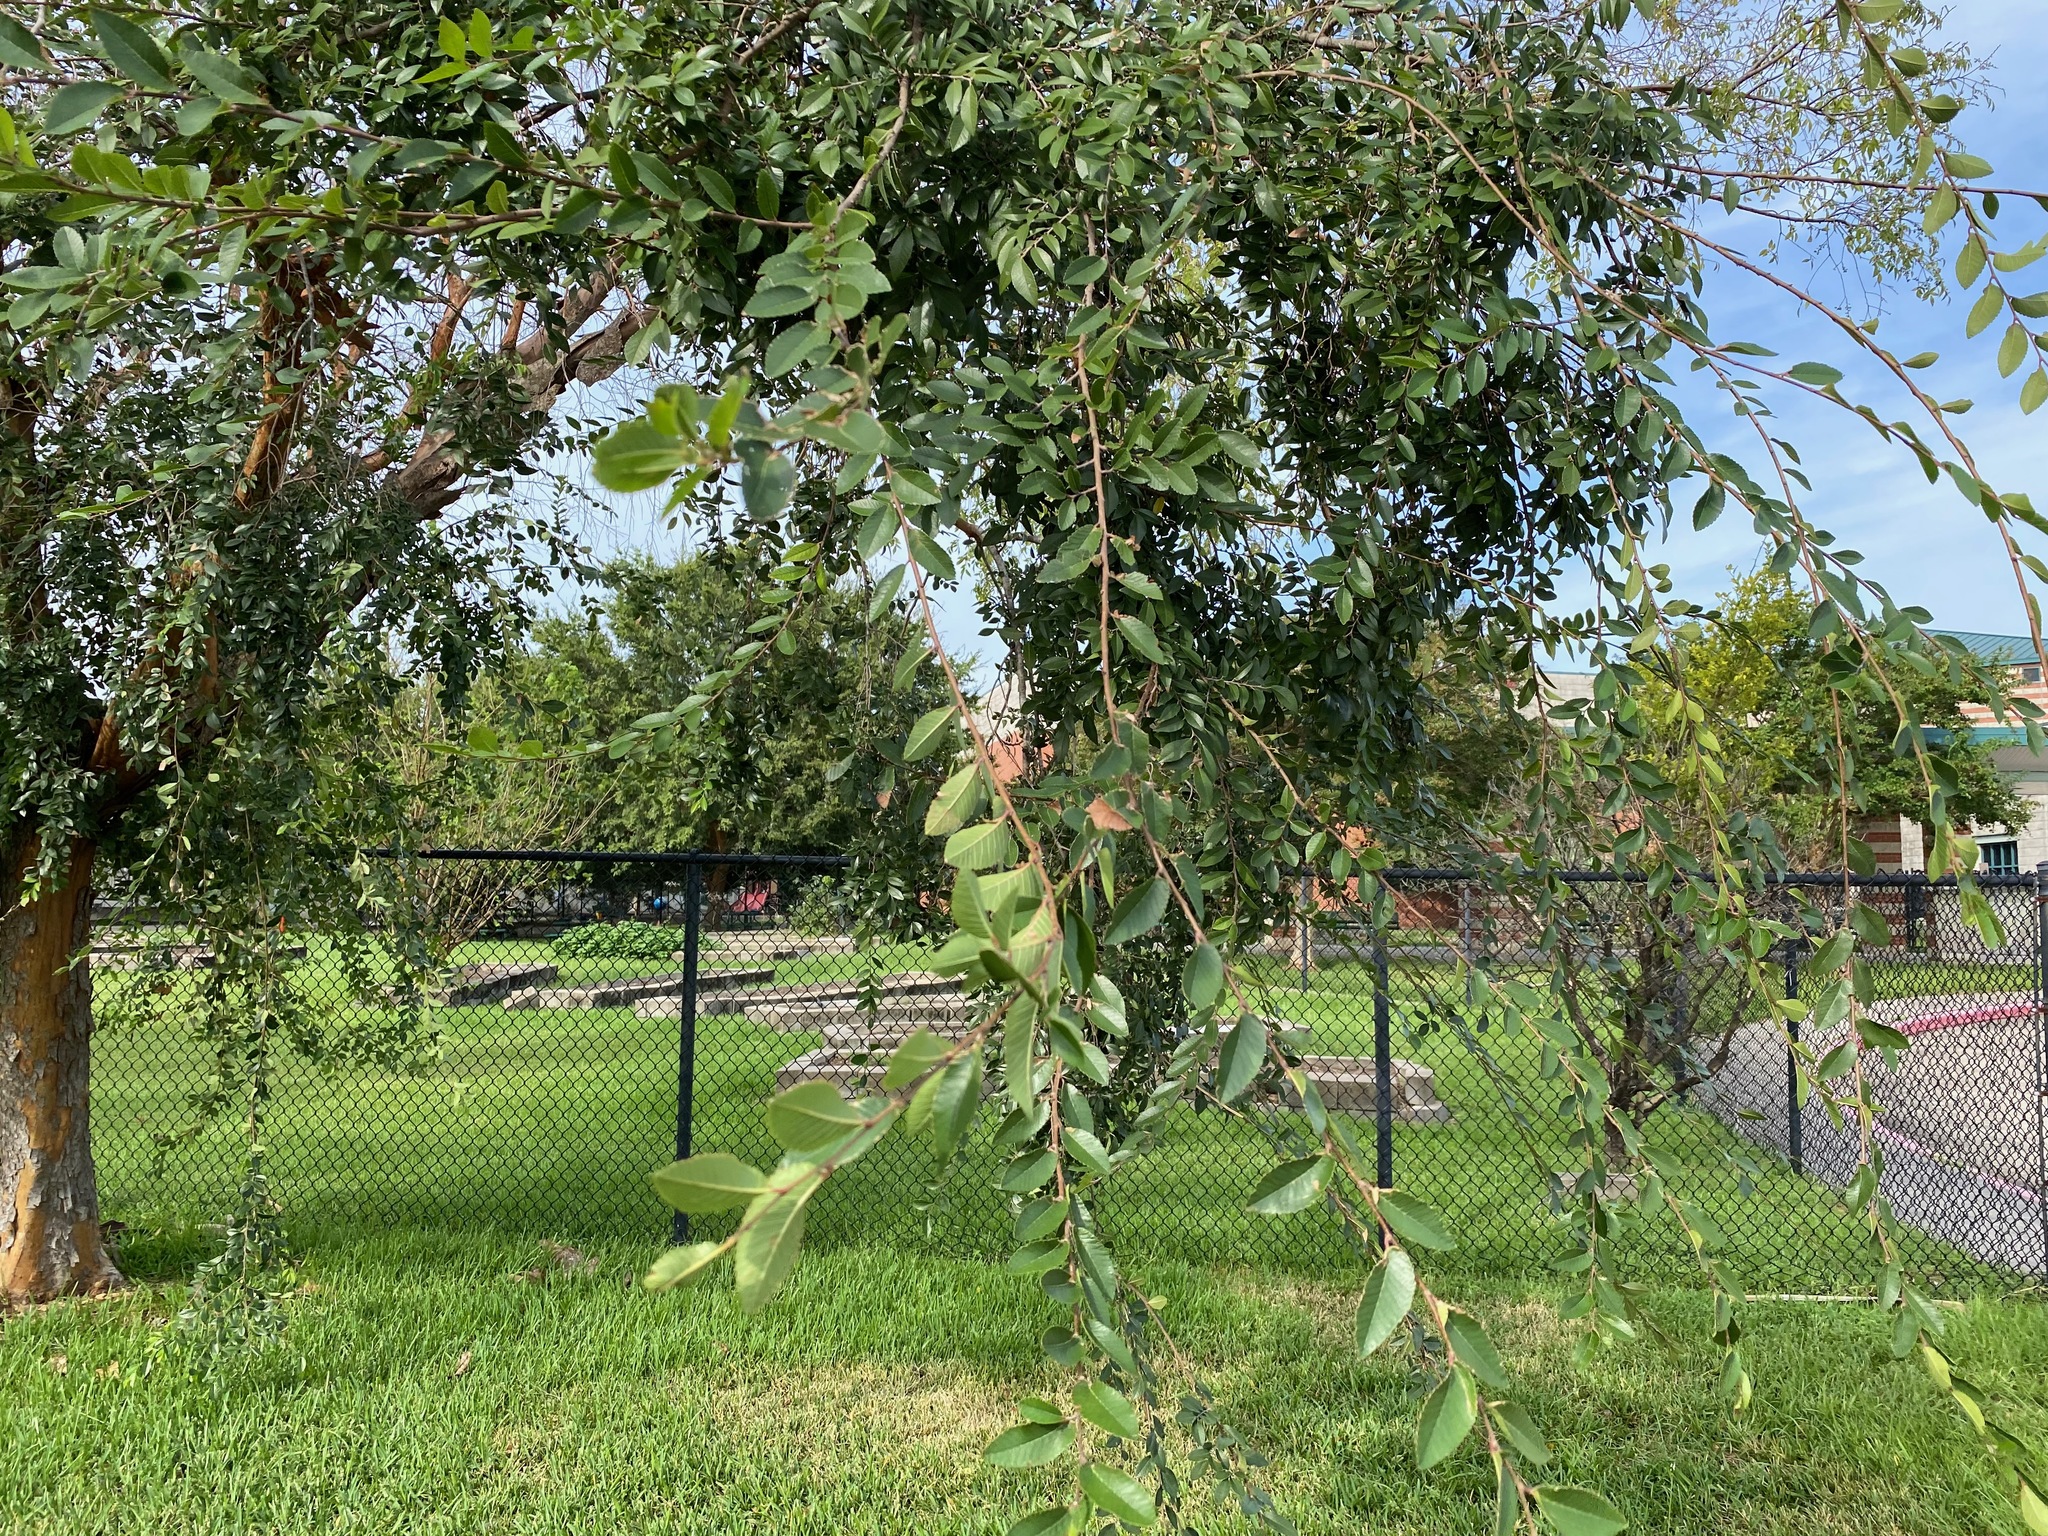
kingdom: Plantae
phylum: Tracheophyta
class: Magnoliopsida
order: Rosales
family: Ulmaceae
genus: Ulmus
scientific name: Ulmus parvifolia
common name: Chinese elm
